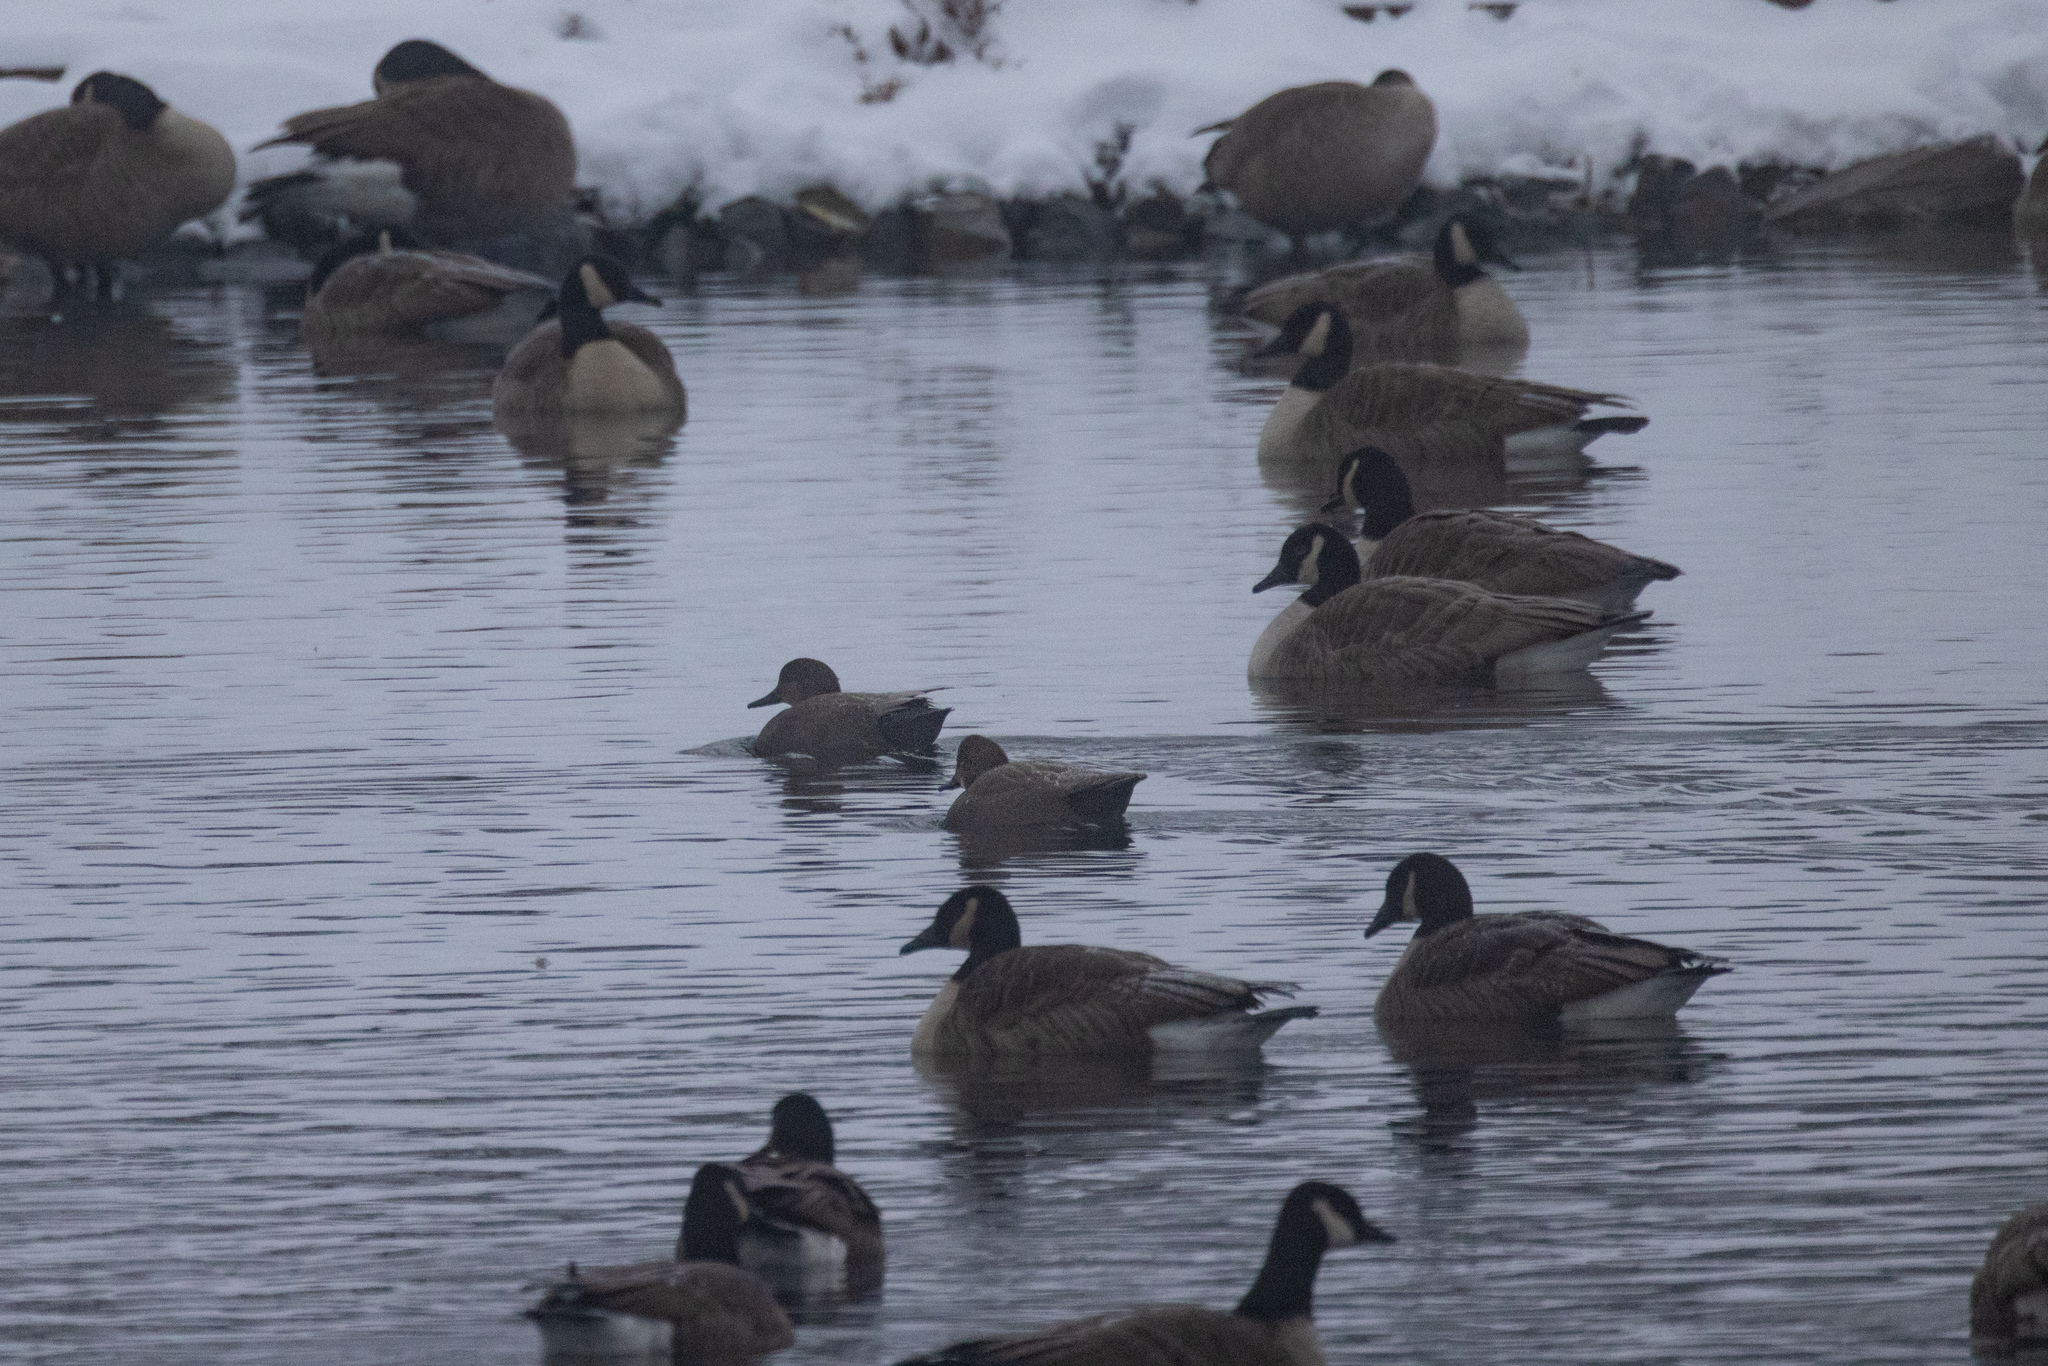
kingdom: Animalia
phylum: Chordata
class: Aves
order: Anseriformes
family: Anatidae
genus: Mareca
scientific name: Mareca strepera
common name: Gadwall
